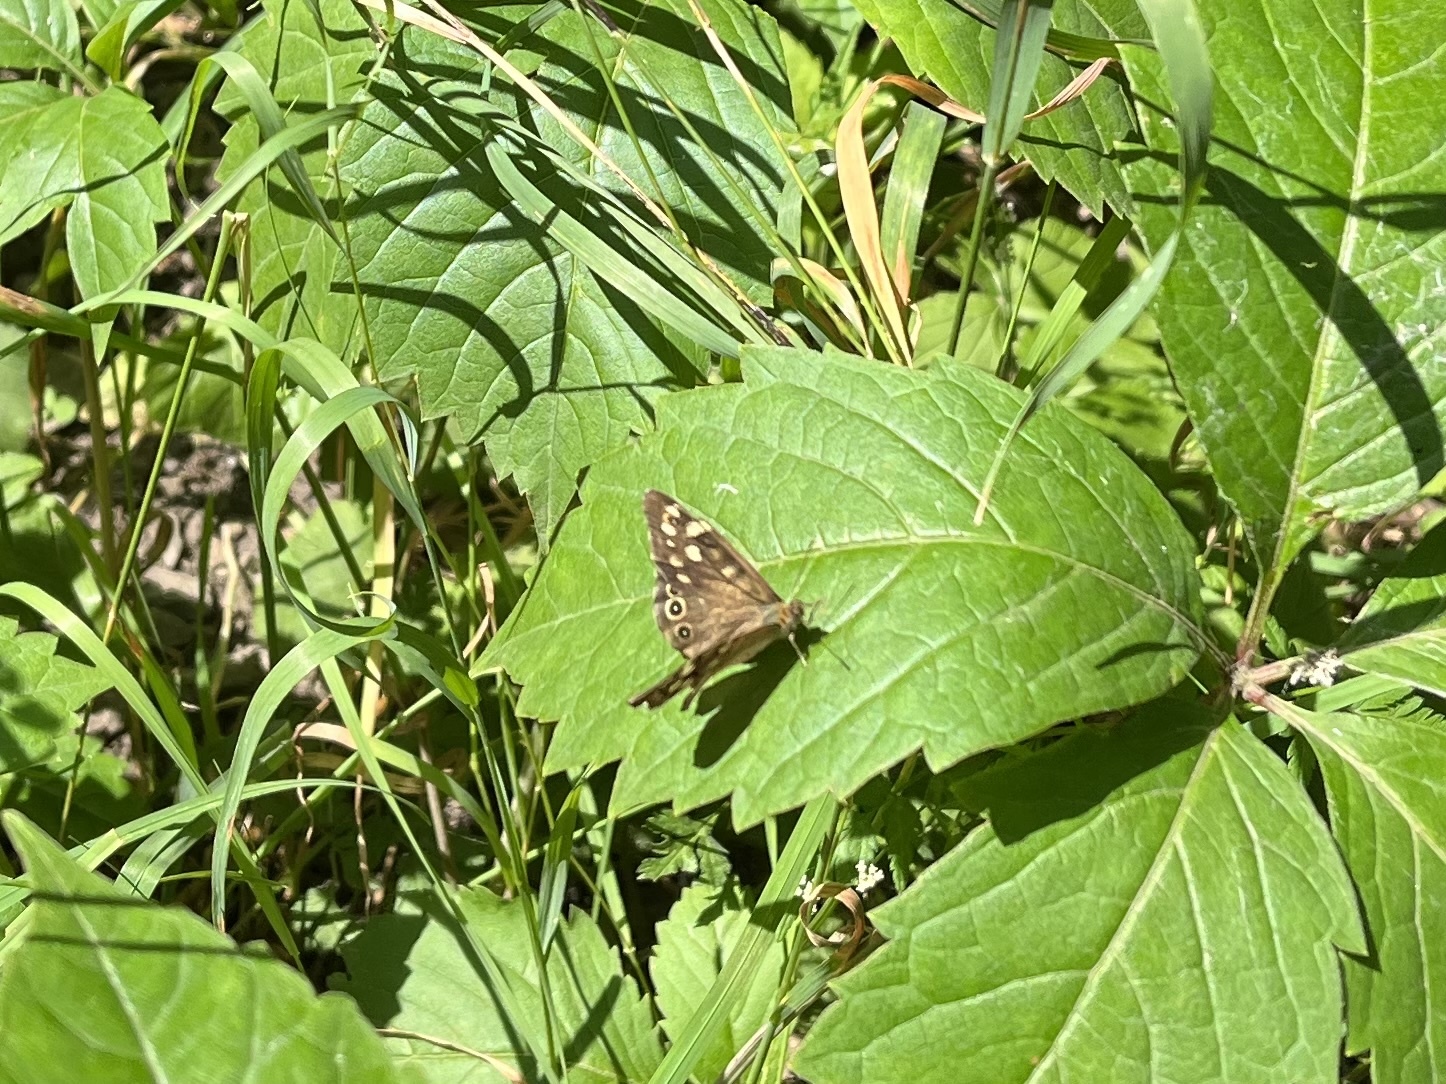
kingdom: Animalia
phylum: Arthropoda
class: Insecta
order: Lepidoptera
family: Nymphalidae
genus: Pararge
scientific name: Pararge aegeria
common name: Speckled wood
